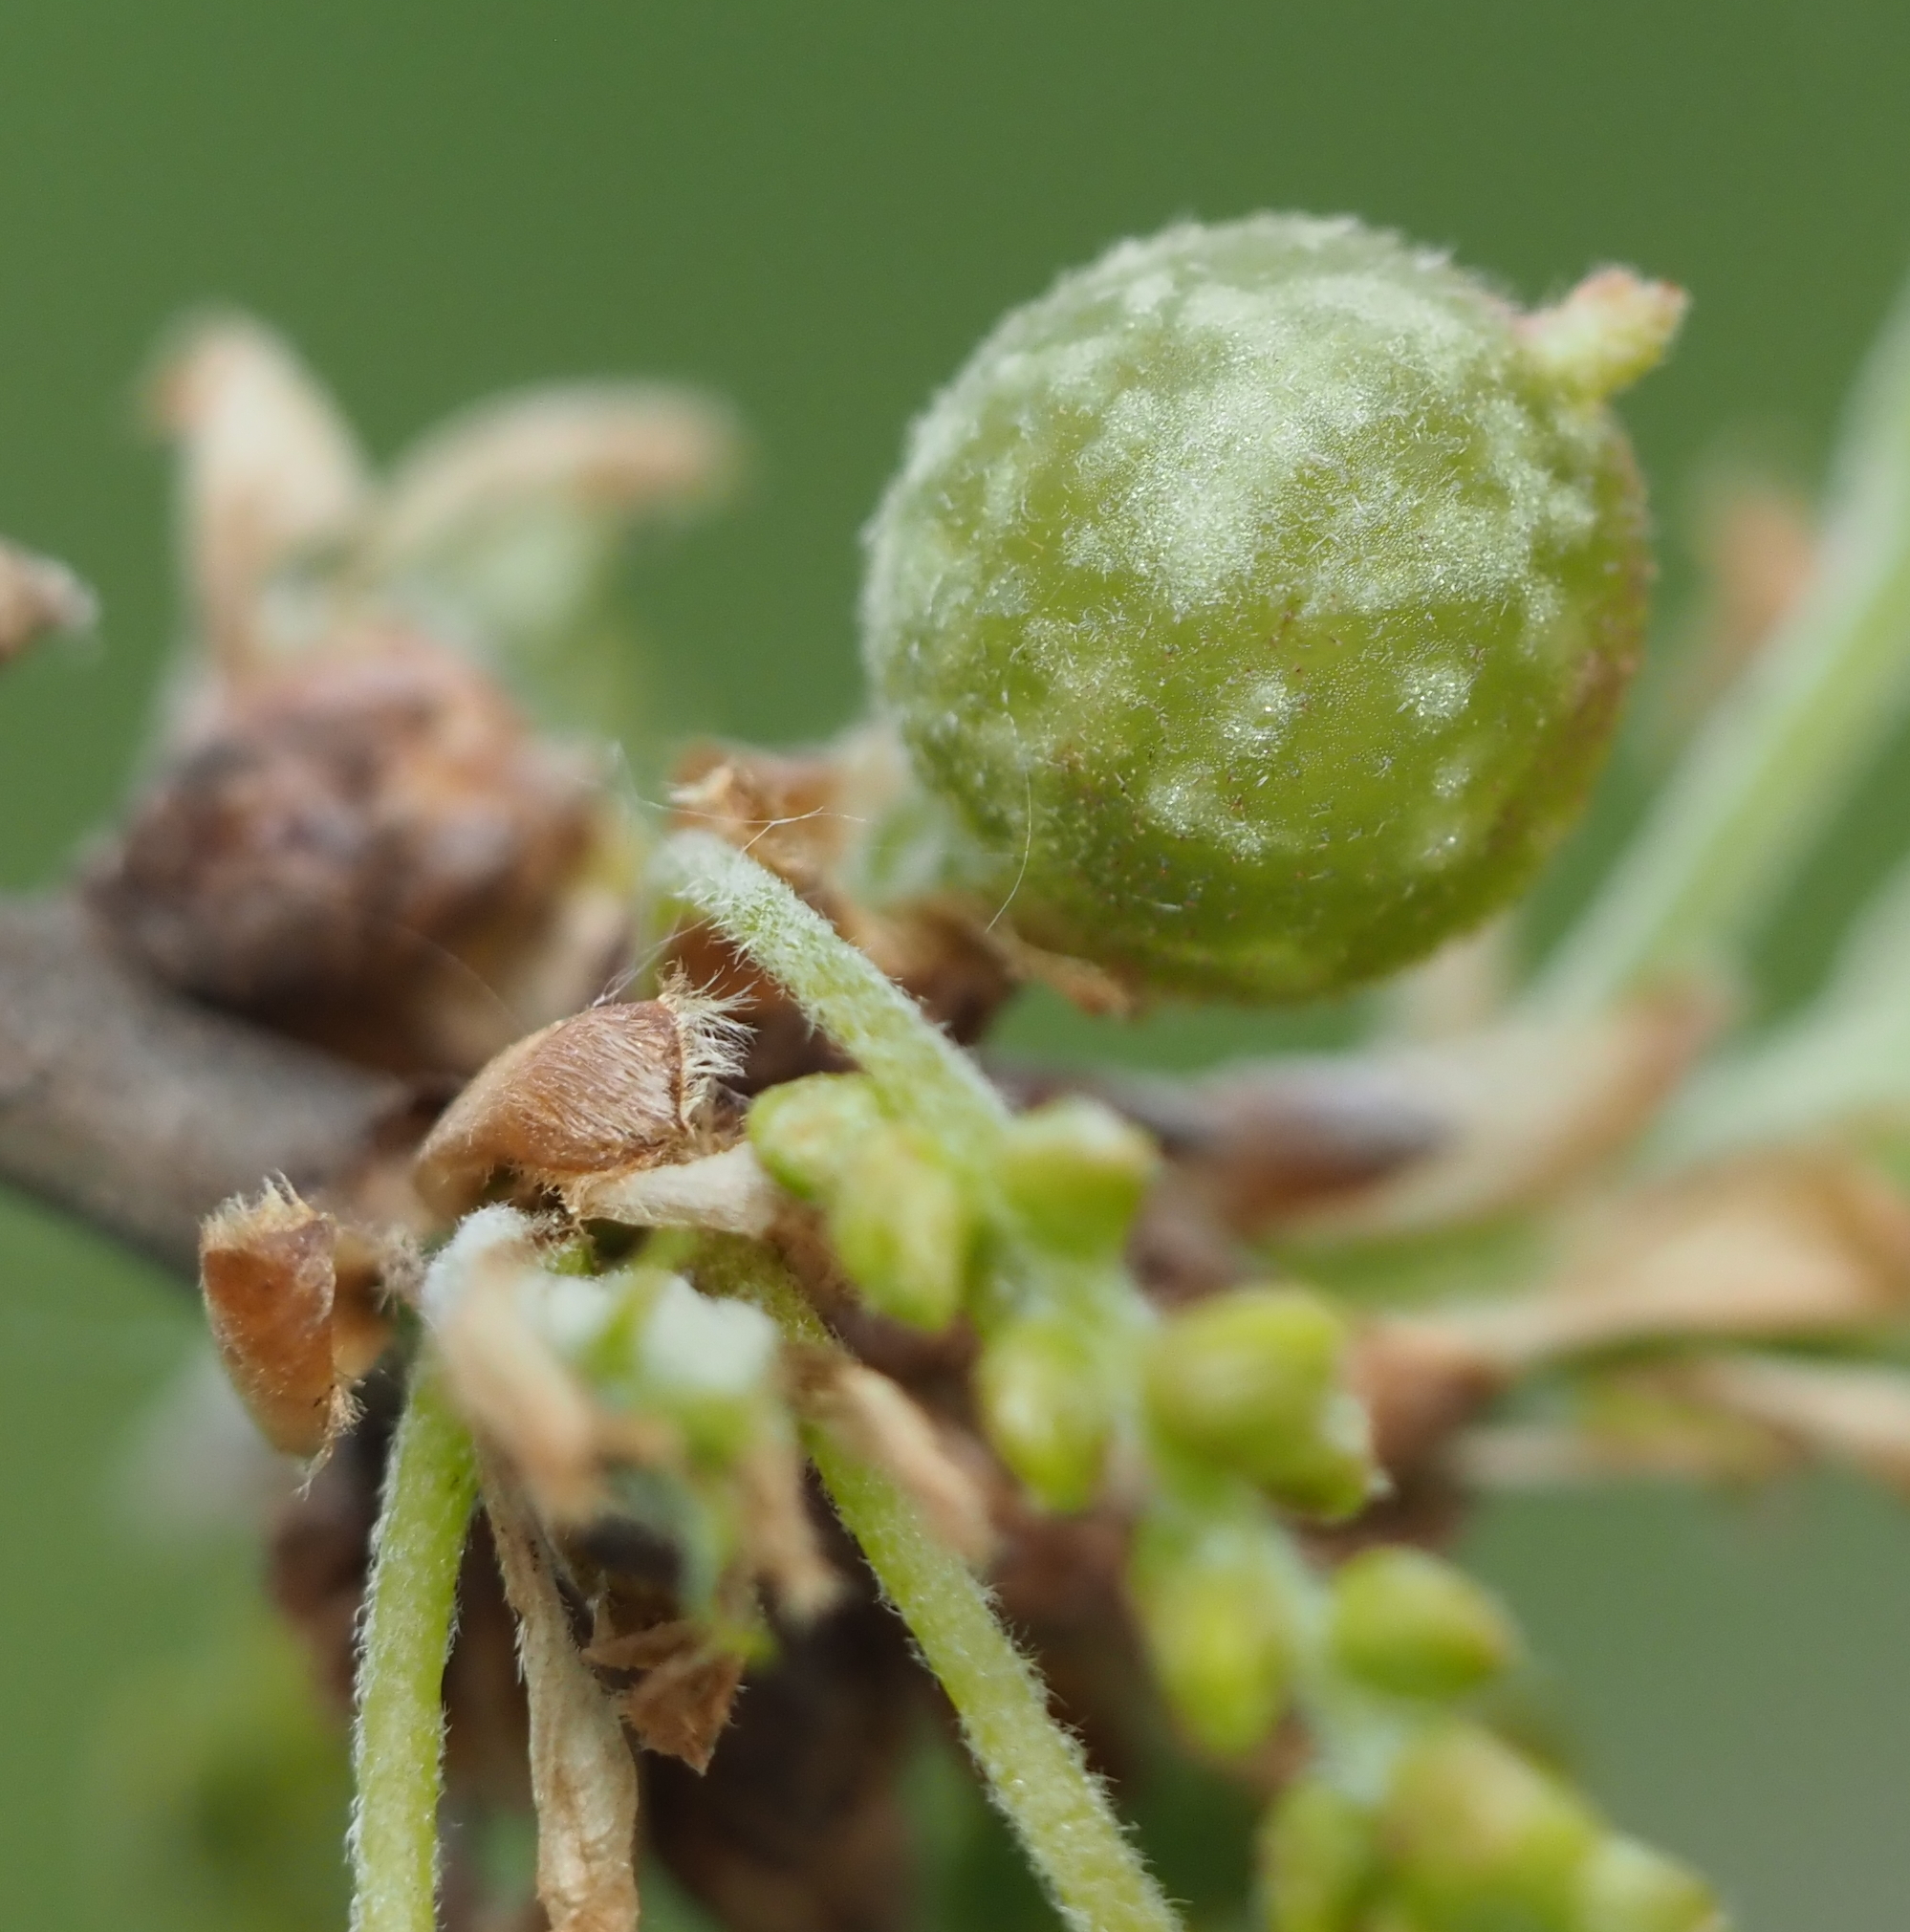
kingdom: Animalia
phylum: Arthropoda
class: Insecta
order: Hymenoptera
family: Cynipidae
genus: Dryocosmus
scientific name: Dryocosmus quercuspalustris
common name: Succulent oak gall wasp
